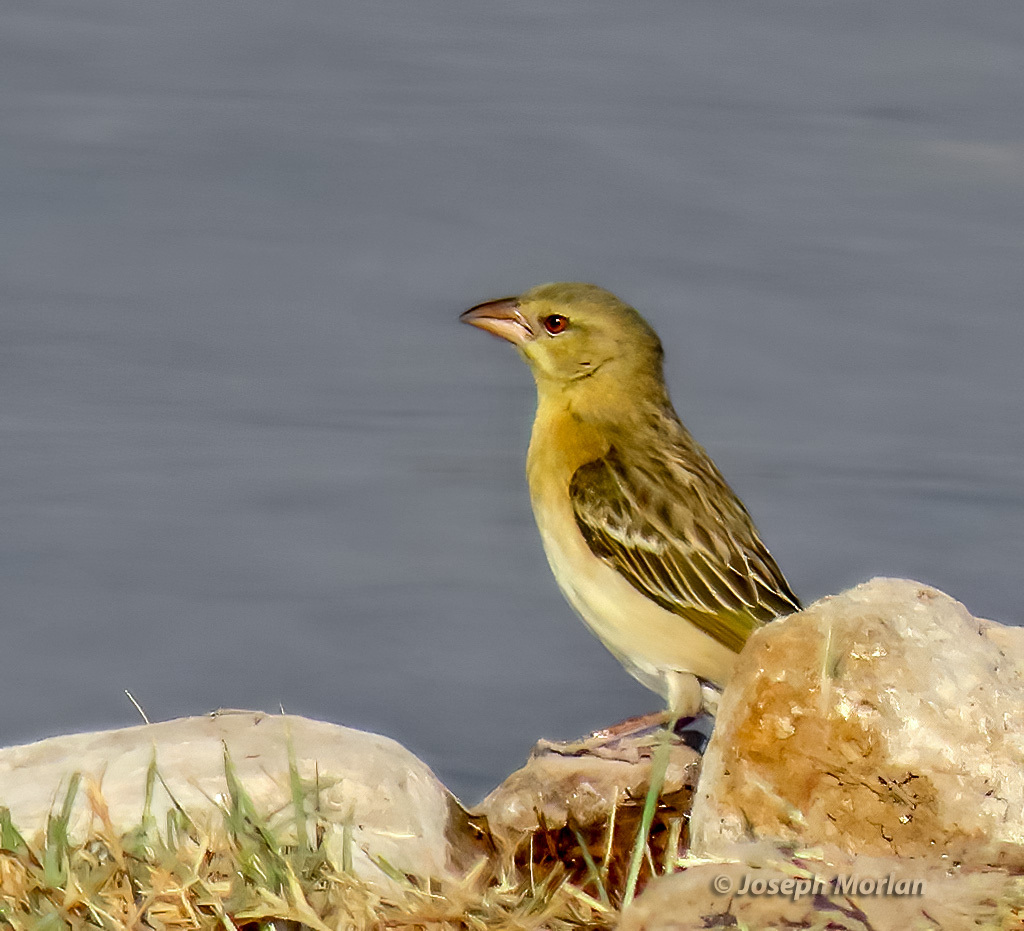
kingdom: Animalia
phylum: Chordata
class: Aves
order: Passeriformes
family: Ploceidae
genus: Ploceus
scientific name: Ploceus velatus
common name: Southern masked weaver
